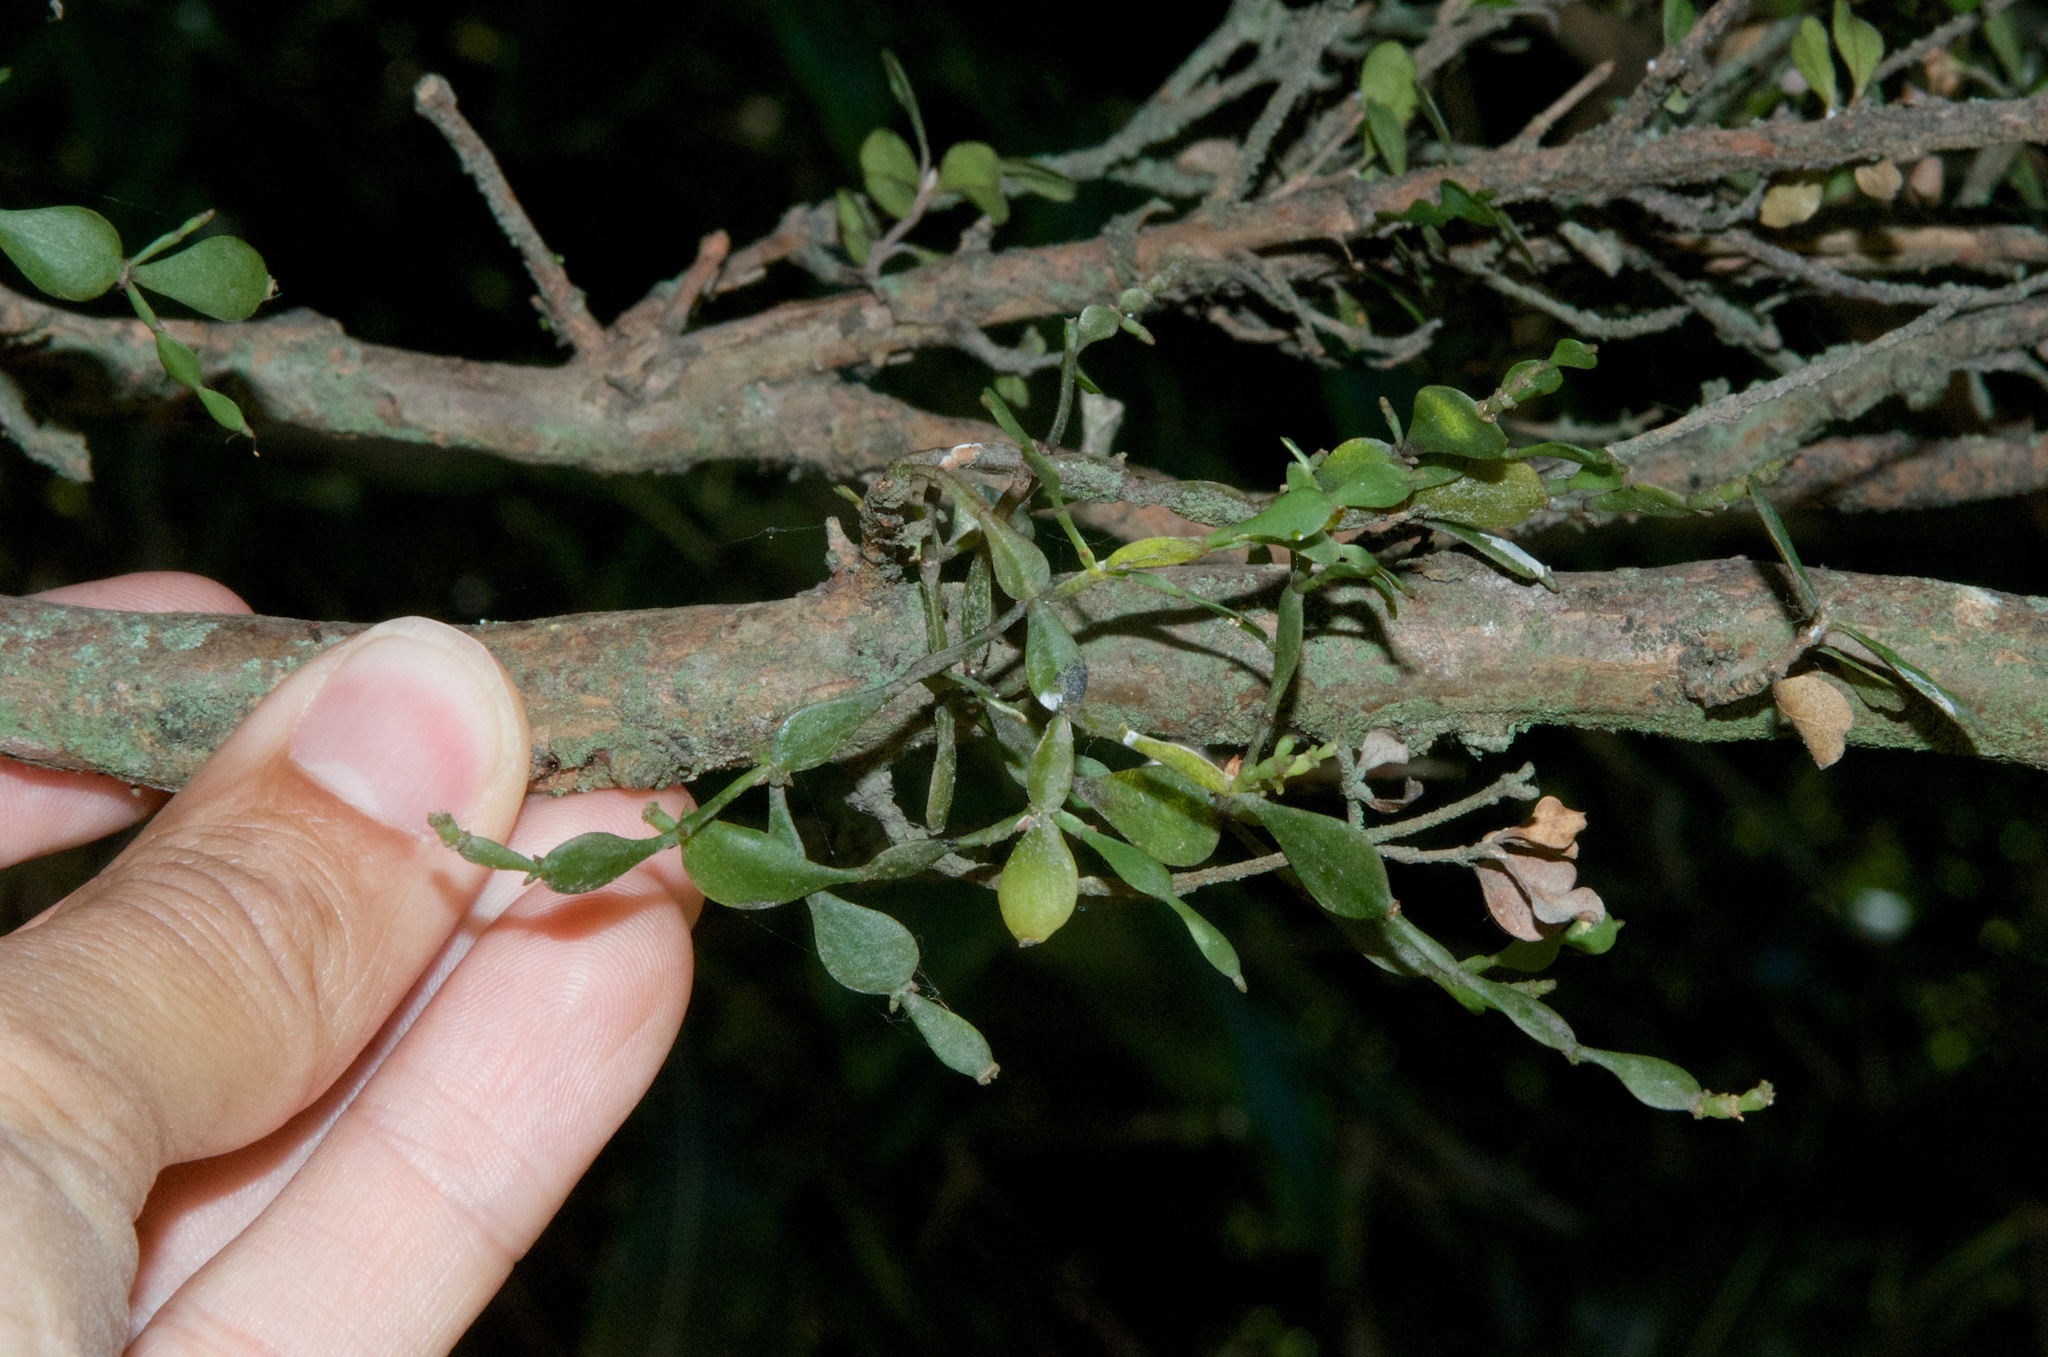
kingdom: Plantae
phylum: Tracheophyta
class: Magnoliopsida
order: Santalales
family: Viscaceae
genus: Korthalsella
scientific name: Korthalsella lindsayi
